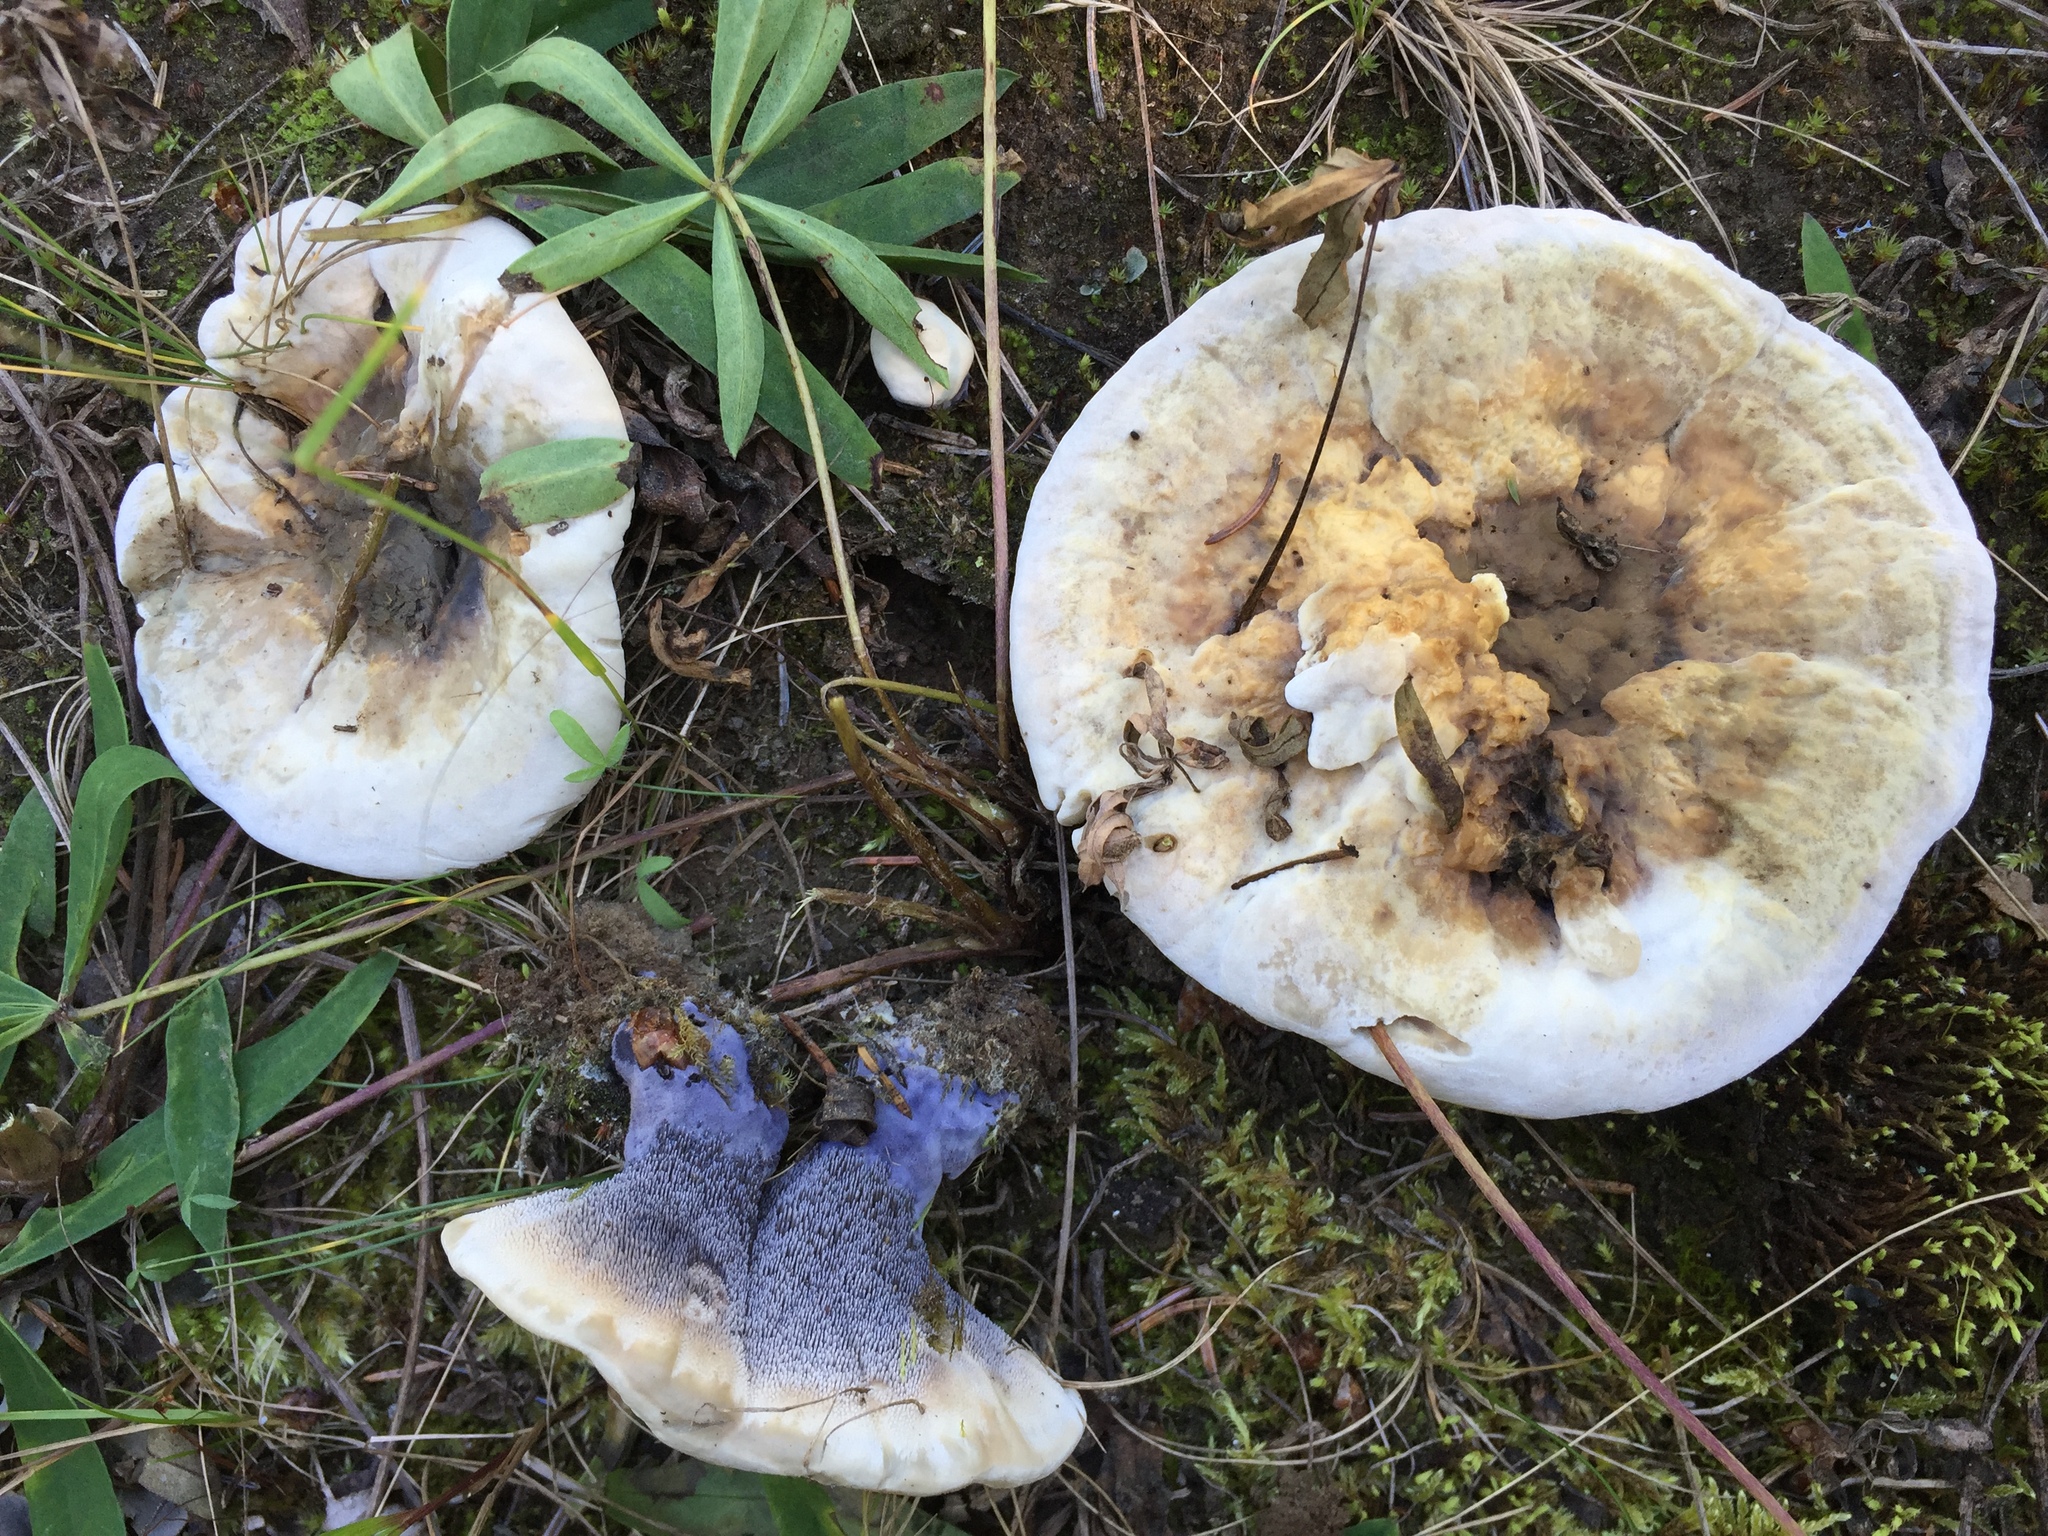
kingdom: Fungi
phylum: Basidiomycota
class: Agaricomycetes
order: Thelephorales
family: Bankeraceae
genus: Hydnellum
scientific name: Hydnellum suaveolens
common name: Sweetgrass hydnellum
